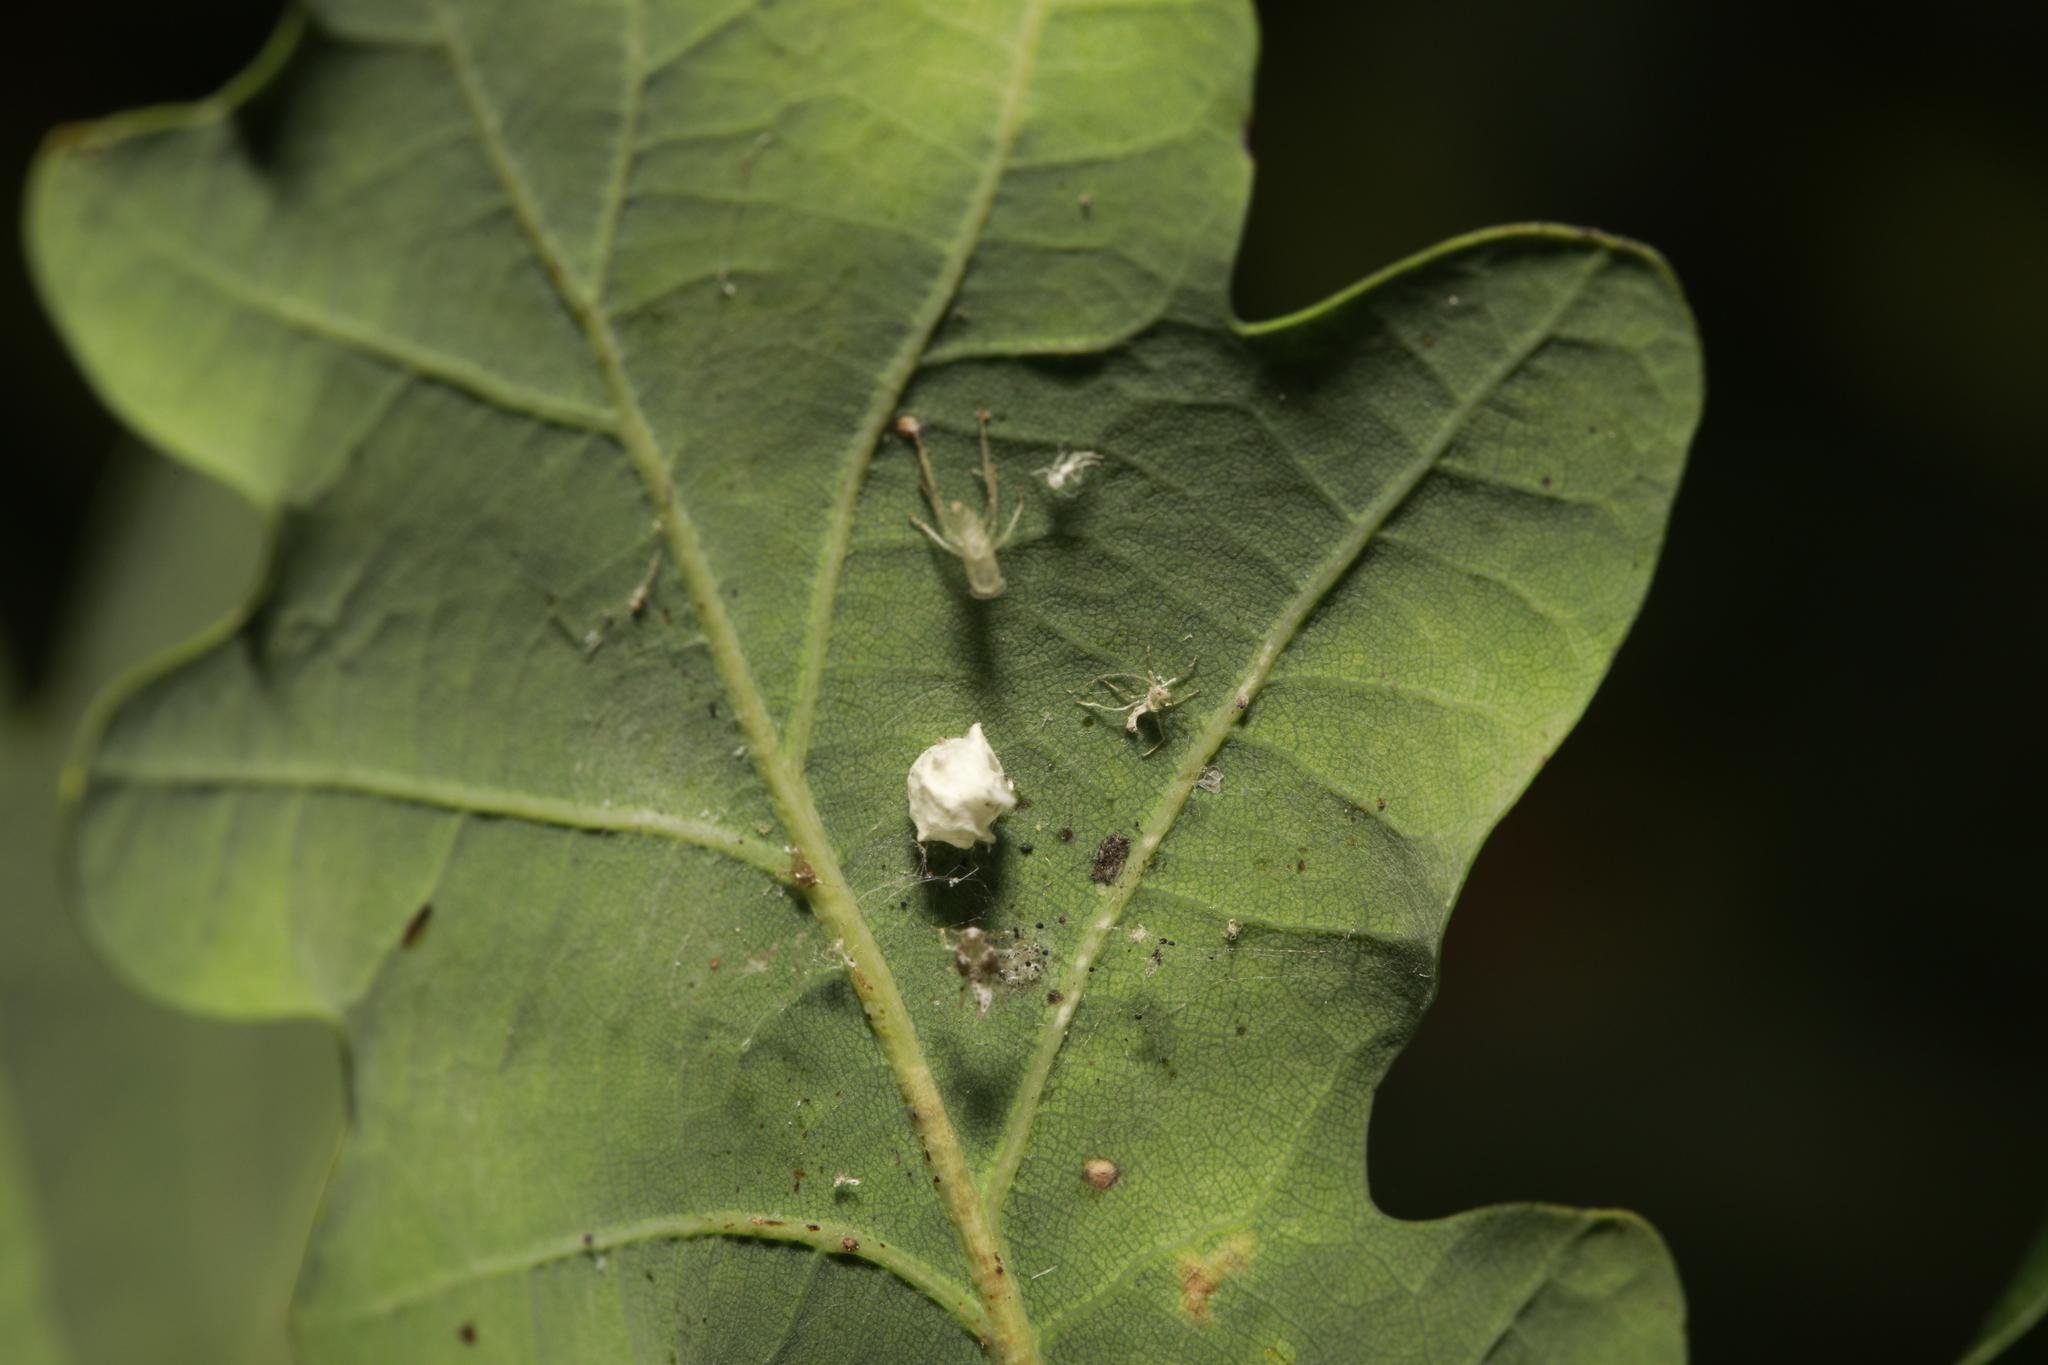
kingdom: Animalia
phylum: Arthropoda
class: Arachnida
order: Araneae
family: Theridiidae
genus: Paidiscura
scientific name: Paidiscura pallens
